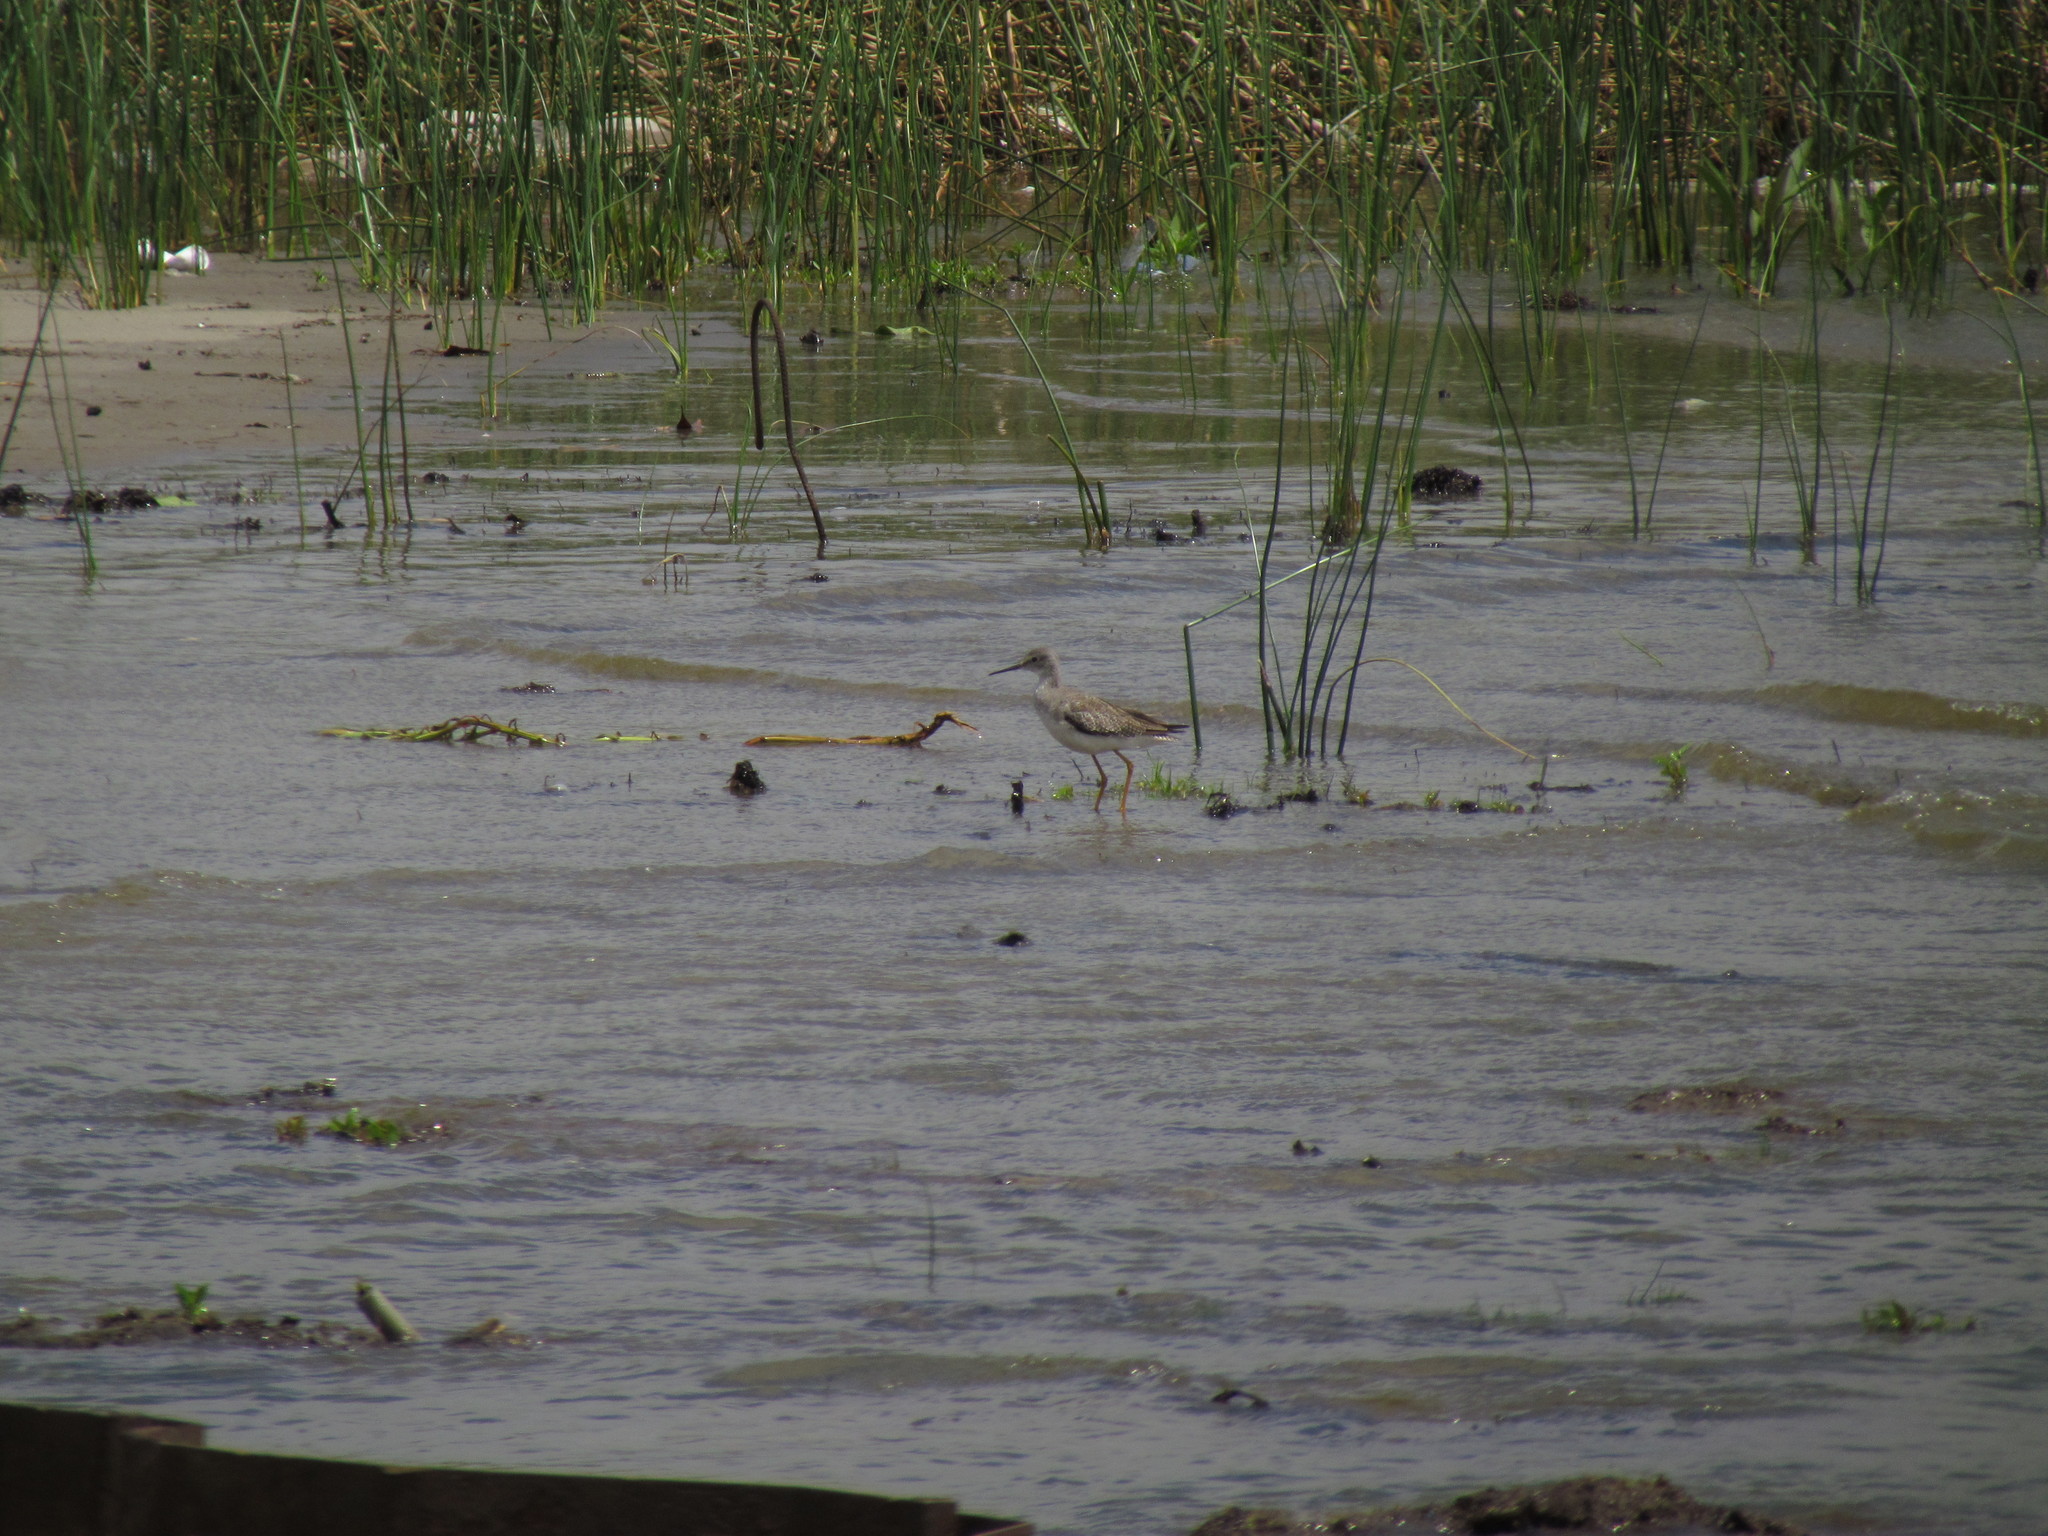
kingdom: Animalia
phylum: Chordata
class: Aves
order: Charadriiformes
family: Scolopacidae
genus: Tringa
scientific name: Tringa flavipes
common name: Lesser yellowlegs
